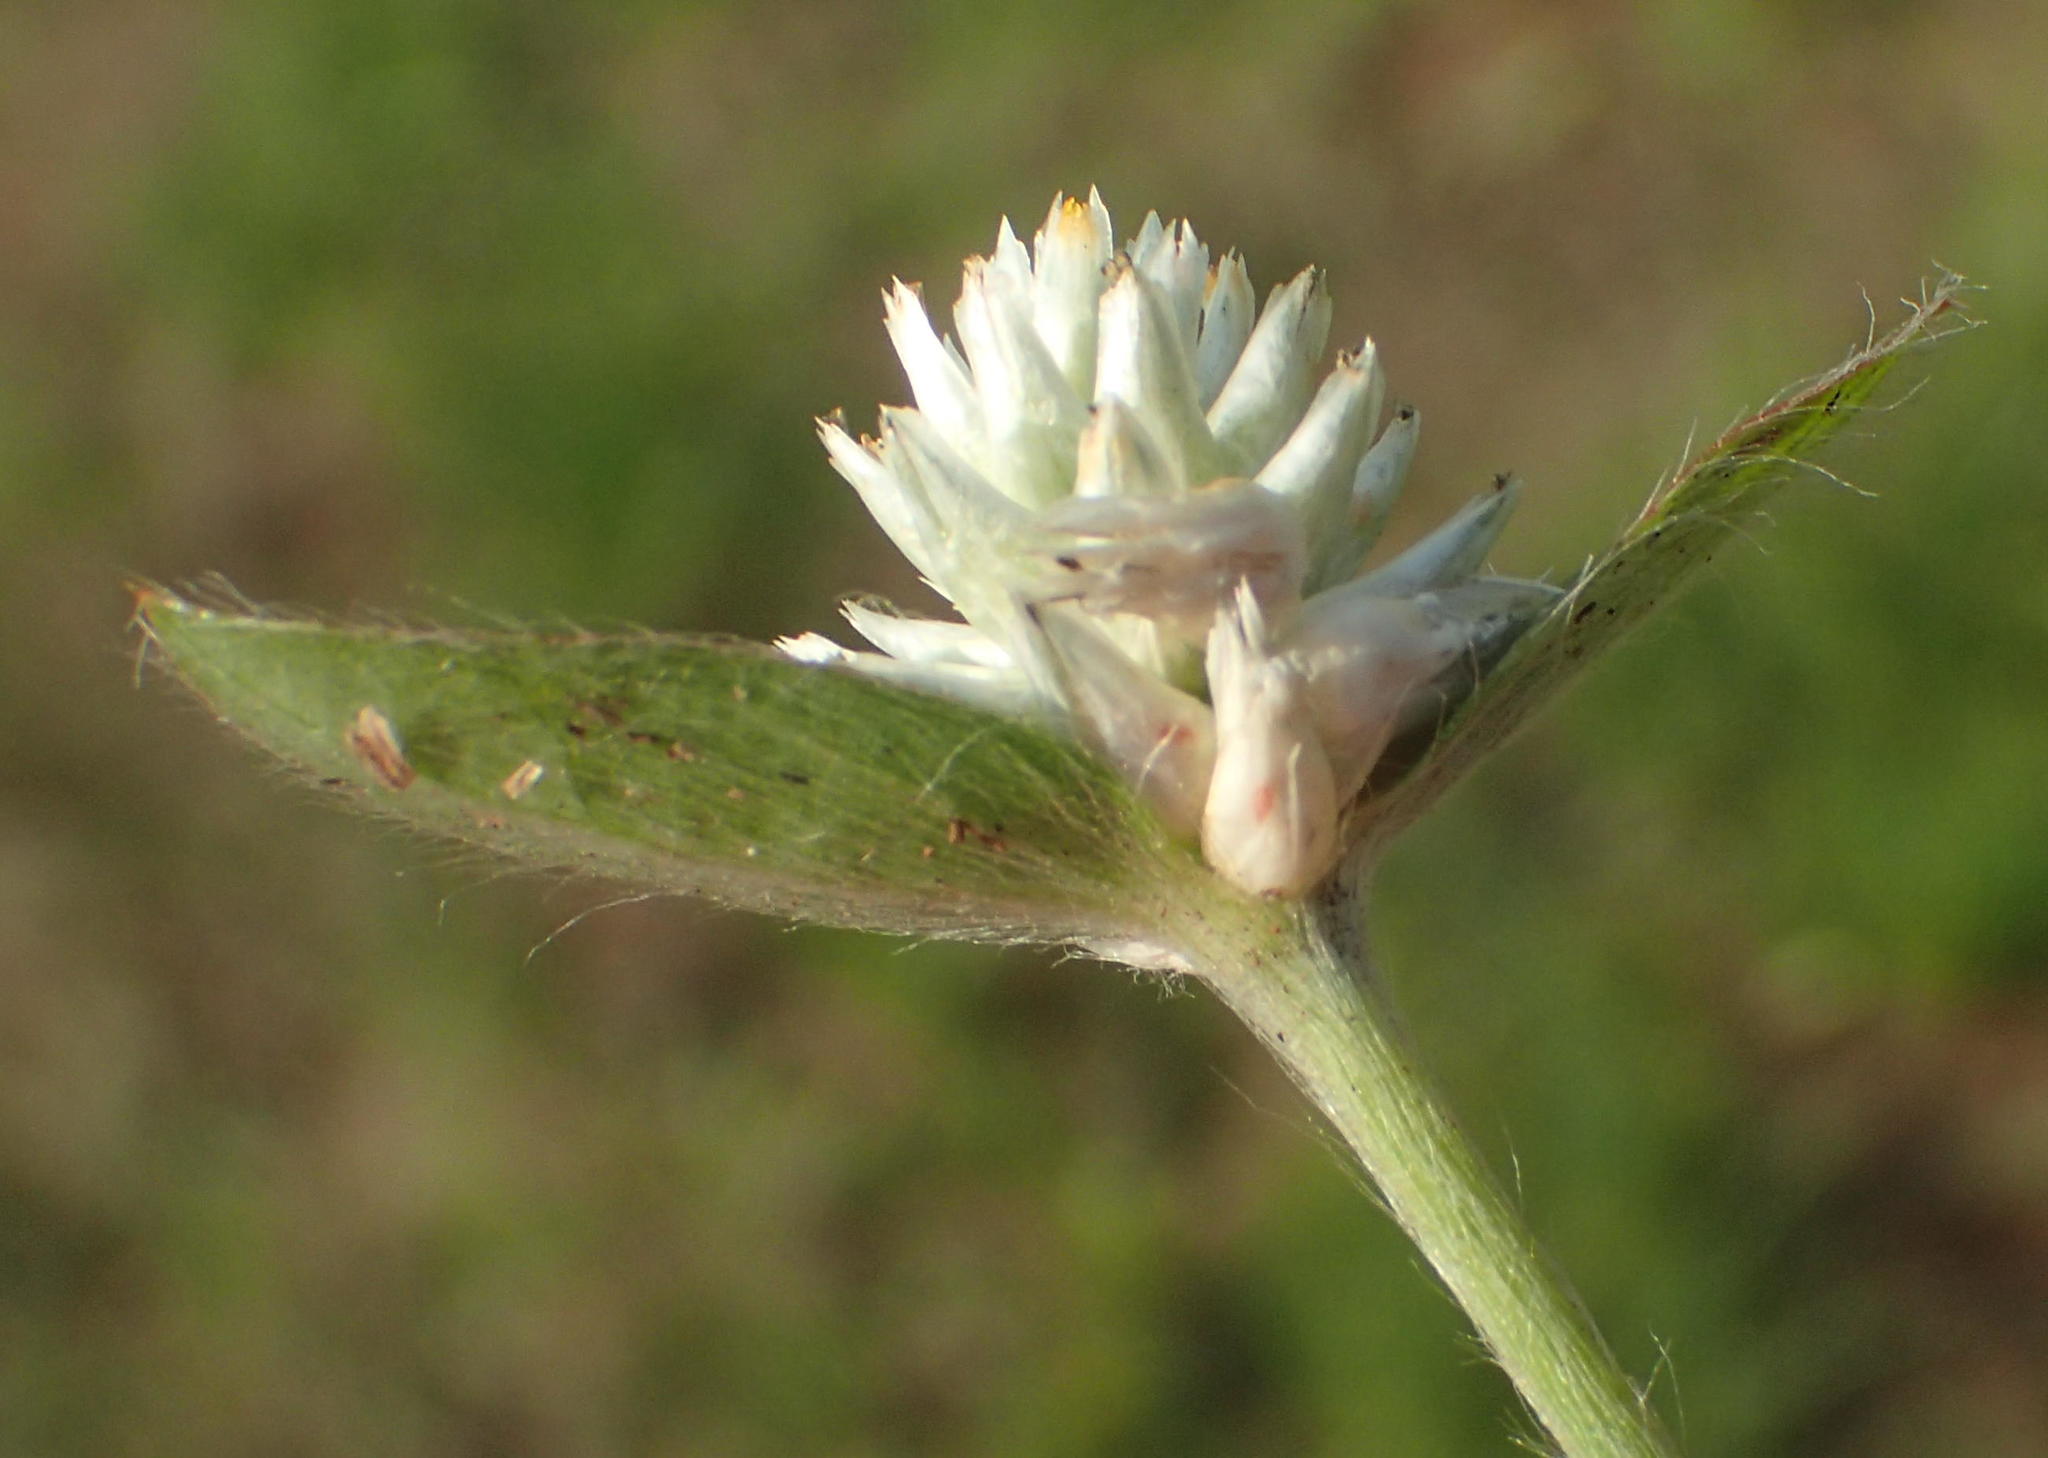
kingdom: Plantae
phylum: Tracheophyta
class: Magnoliopsida
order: Caryophyllales
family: Amaranthaceae
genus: Gomphrena
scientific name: Gomphrena celosioides
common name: Gomphrena-weed
